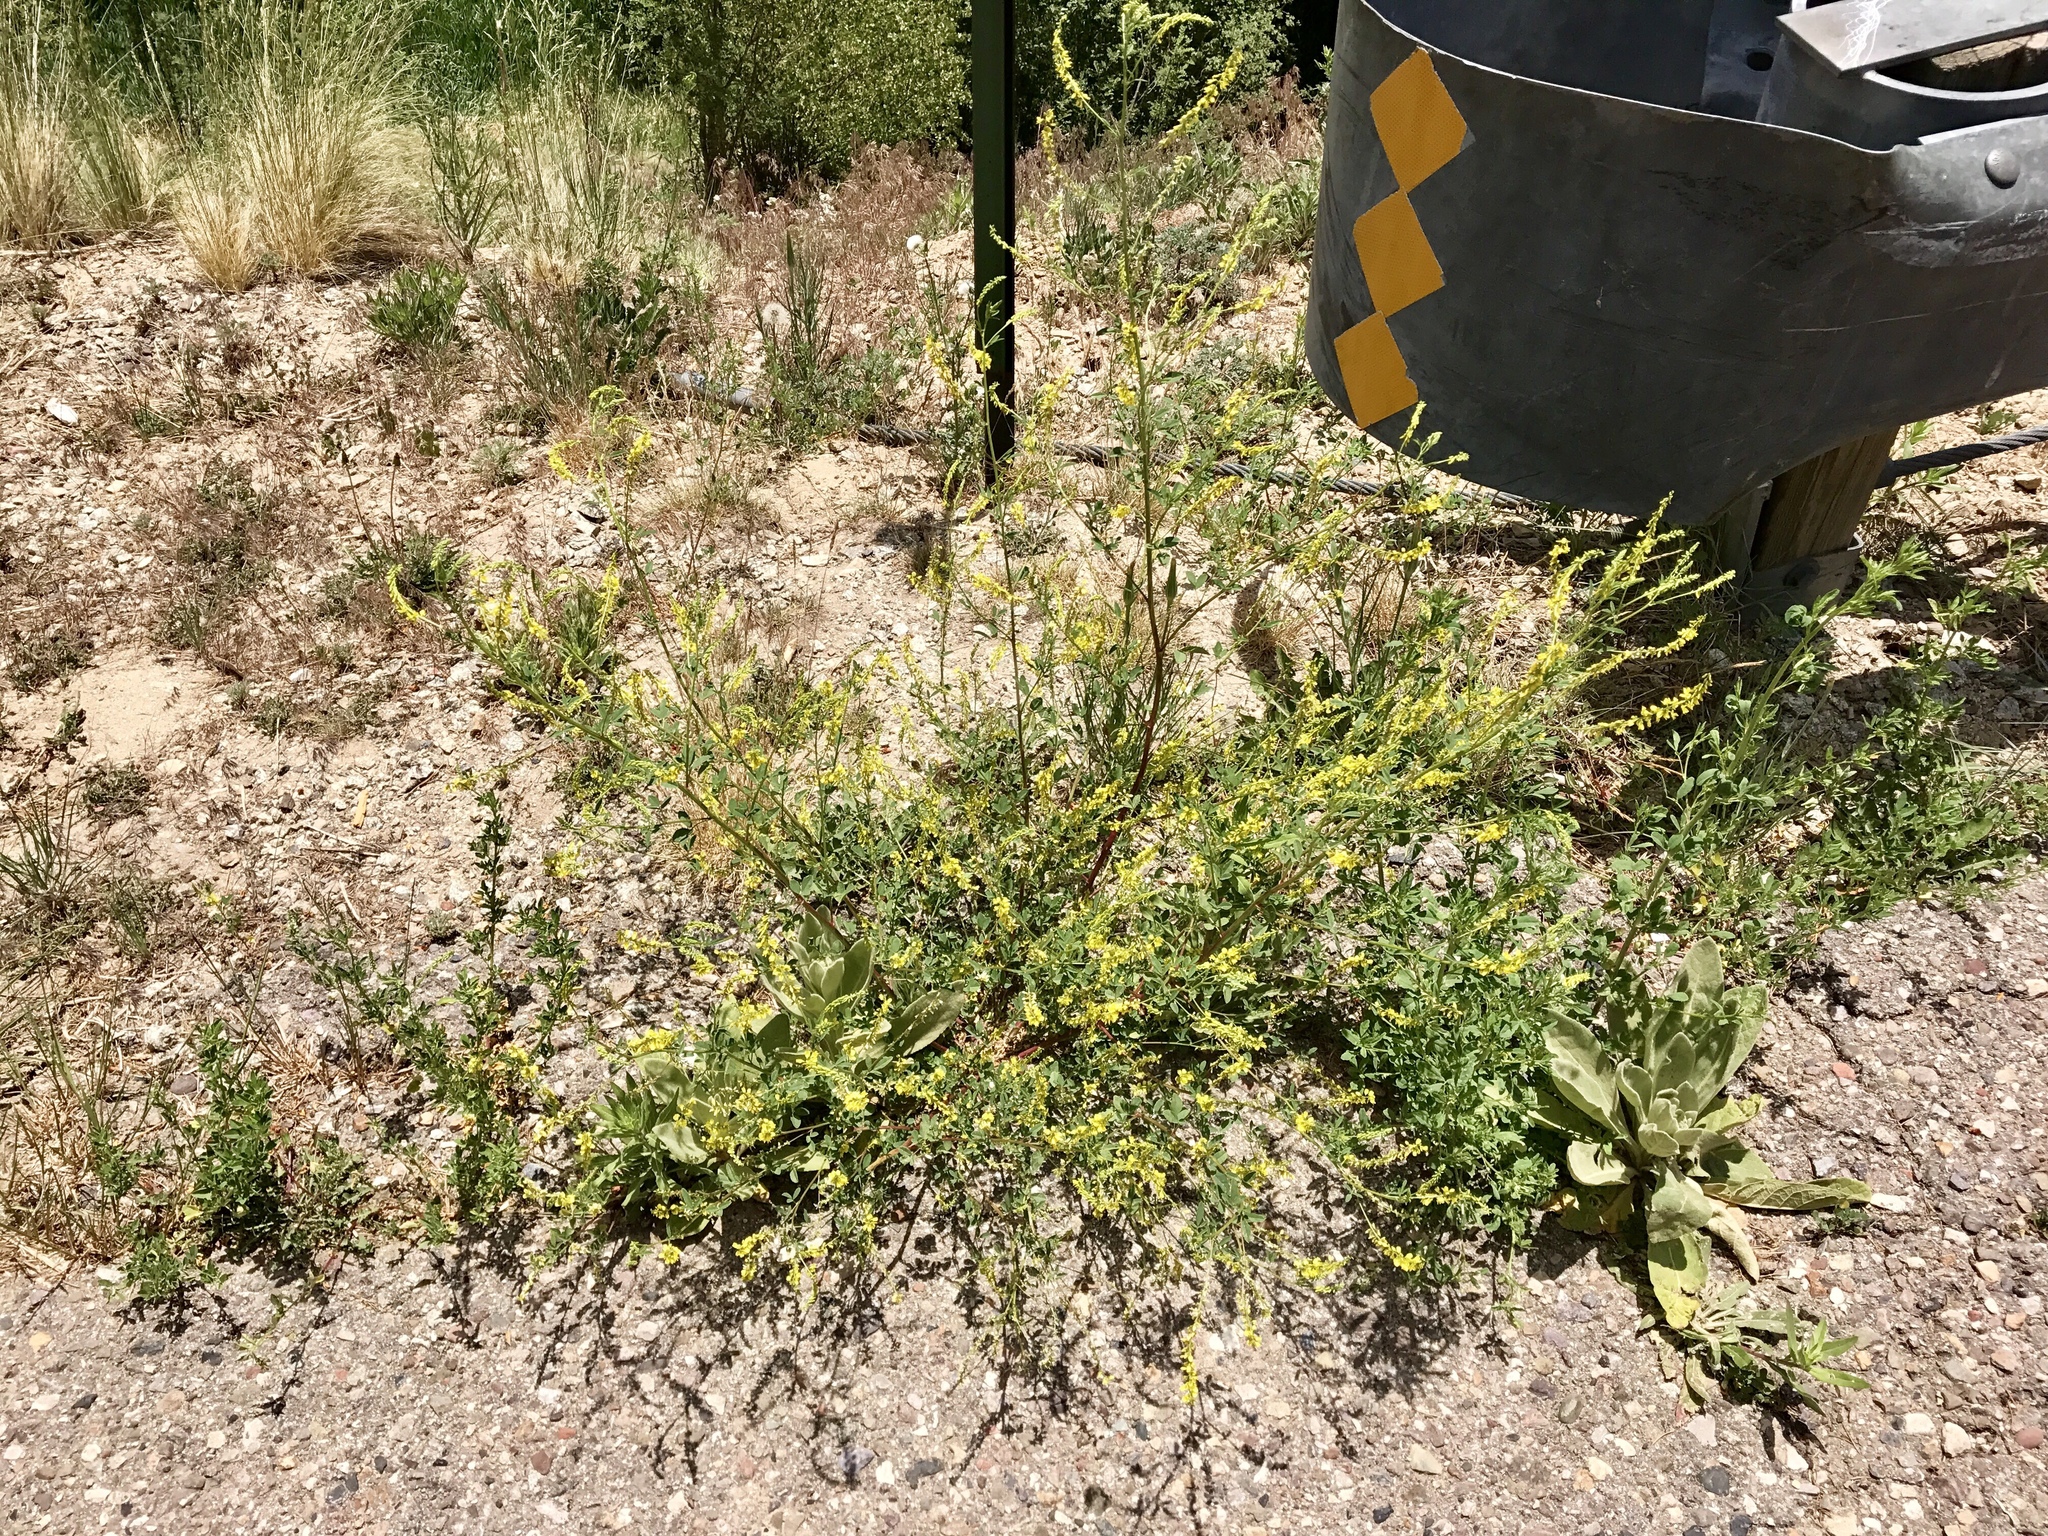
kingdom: Plantae
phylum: Tracheophyta
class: Magnoliopsida
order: Fabales
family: Fabaceae
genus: Melilotus
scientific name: Melilotus officinalis
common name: Sweetclover
